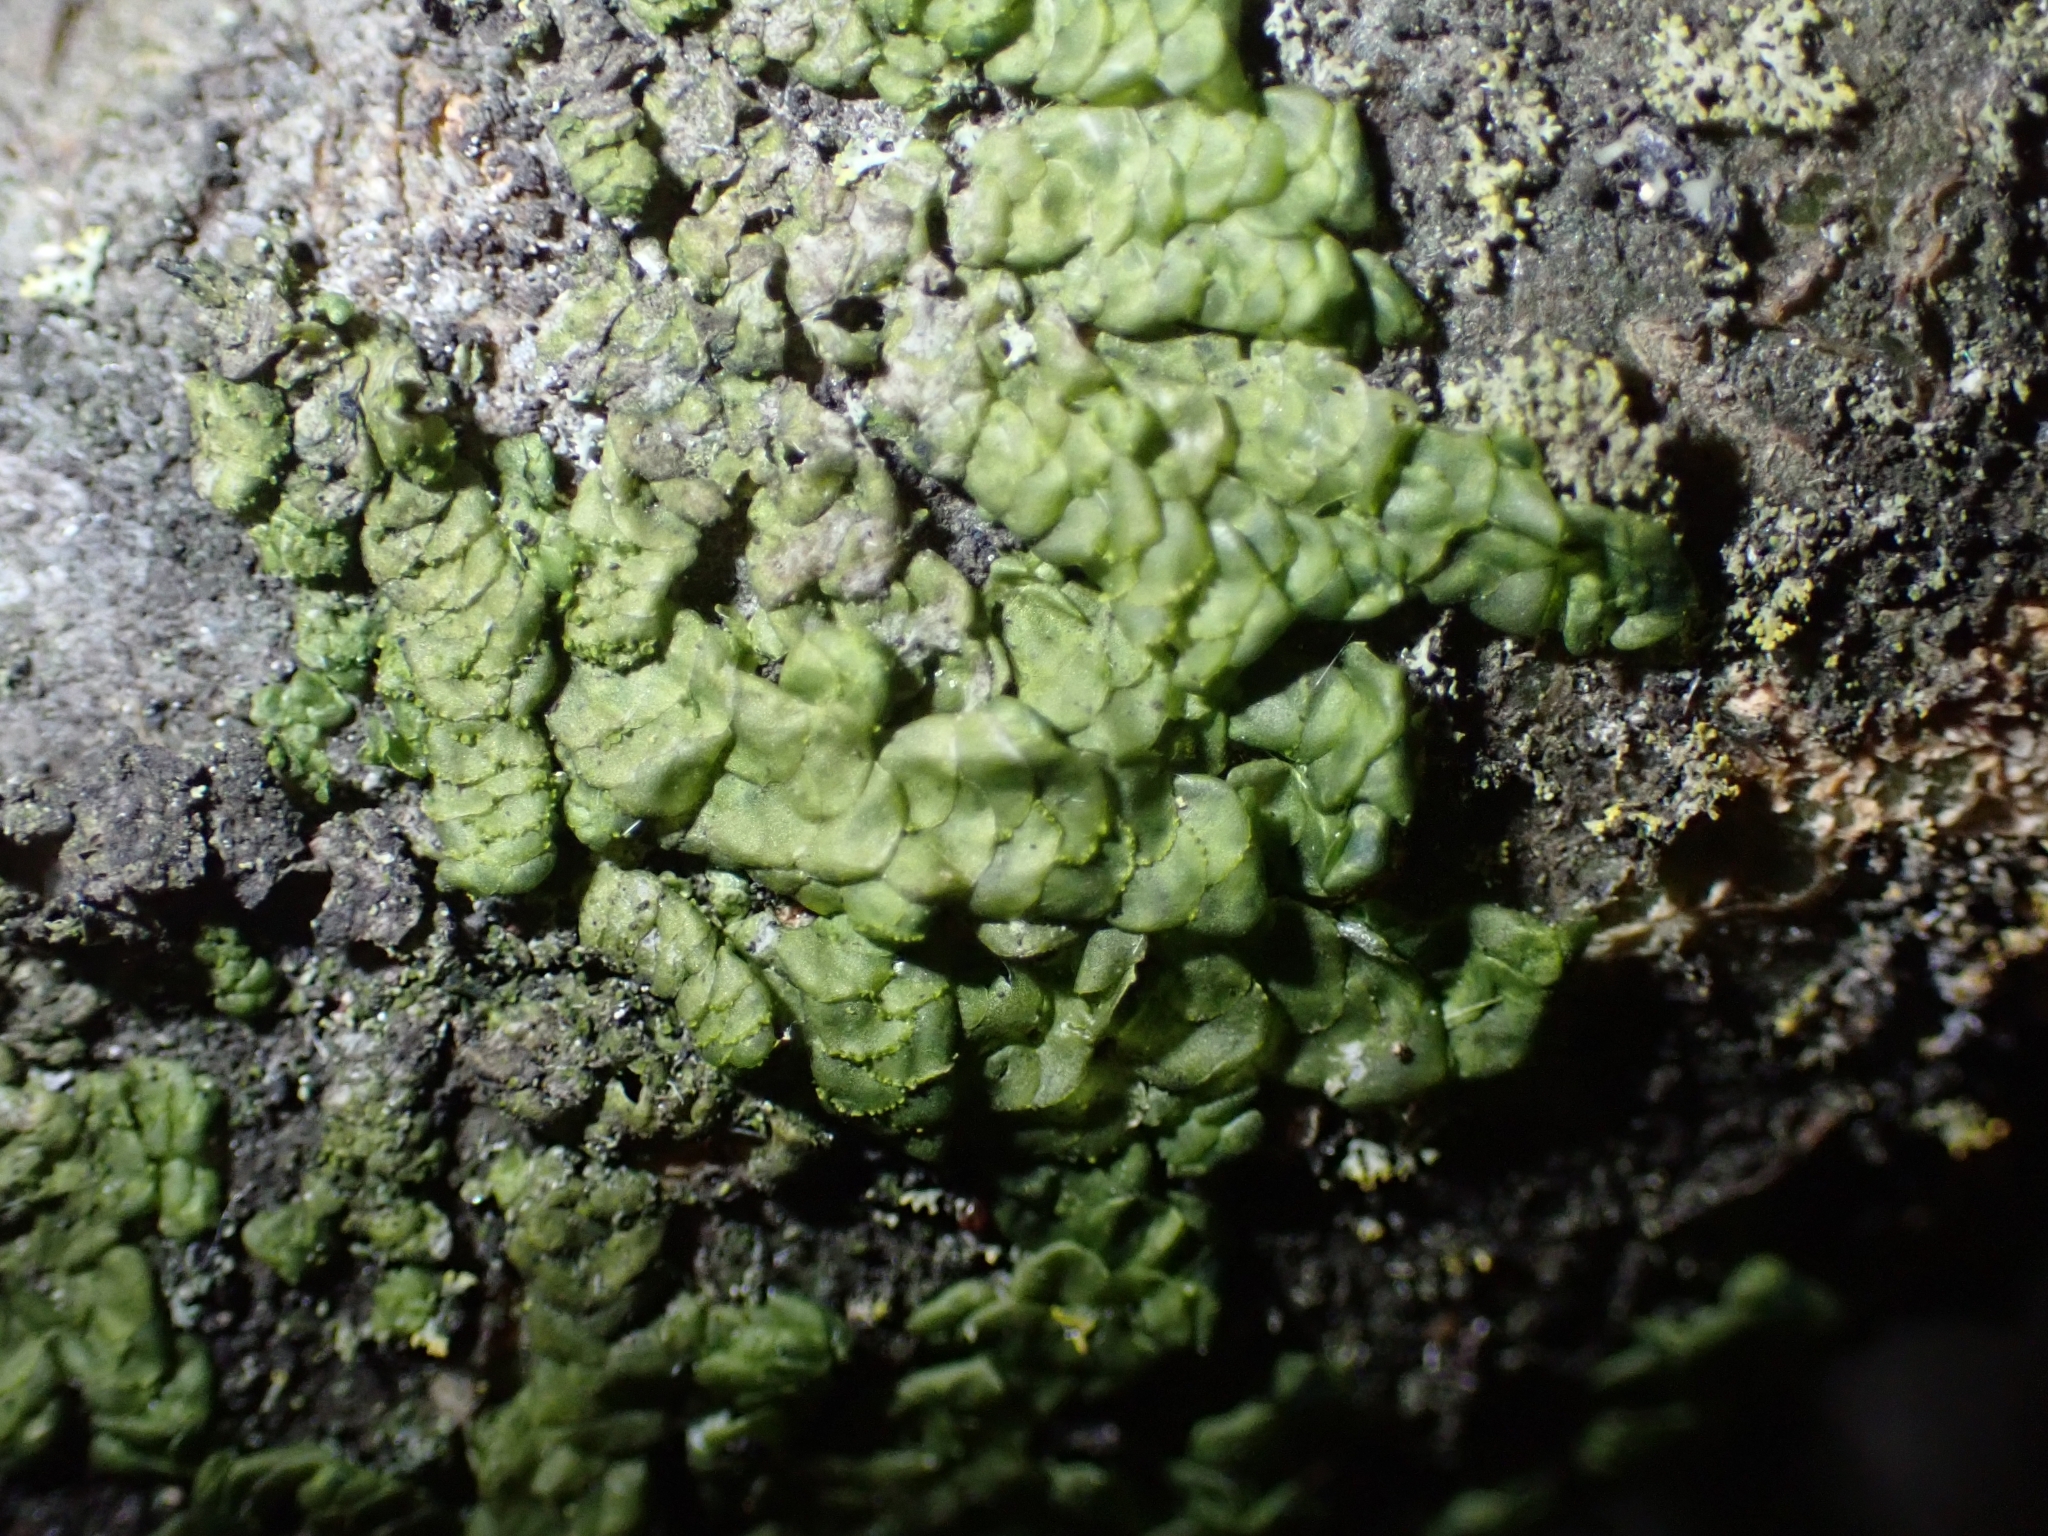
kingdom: Plantae
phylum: Marchantiophyta
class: Jungermanniopsida
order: Porellales
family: Radulaceae
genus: Radula
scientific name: Radula complanata
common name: Flat-leaved scalewort
